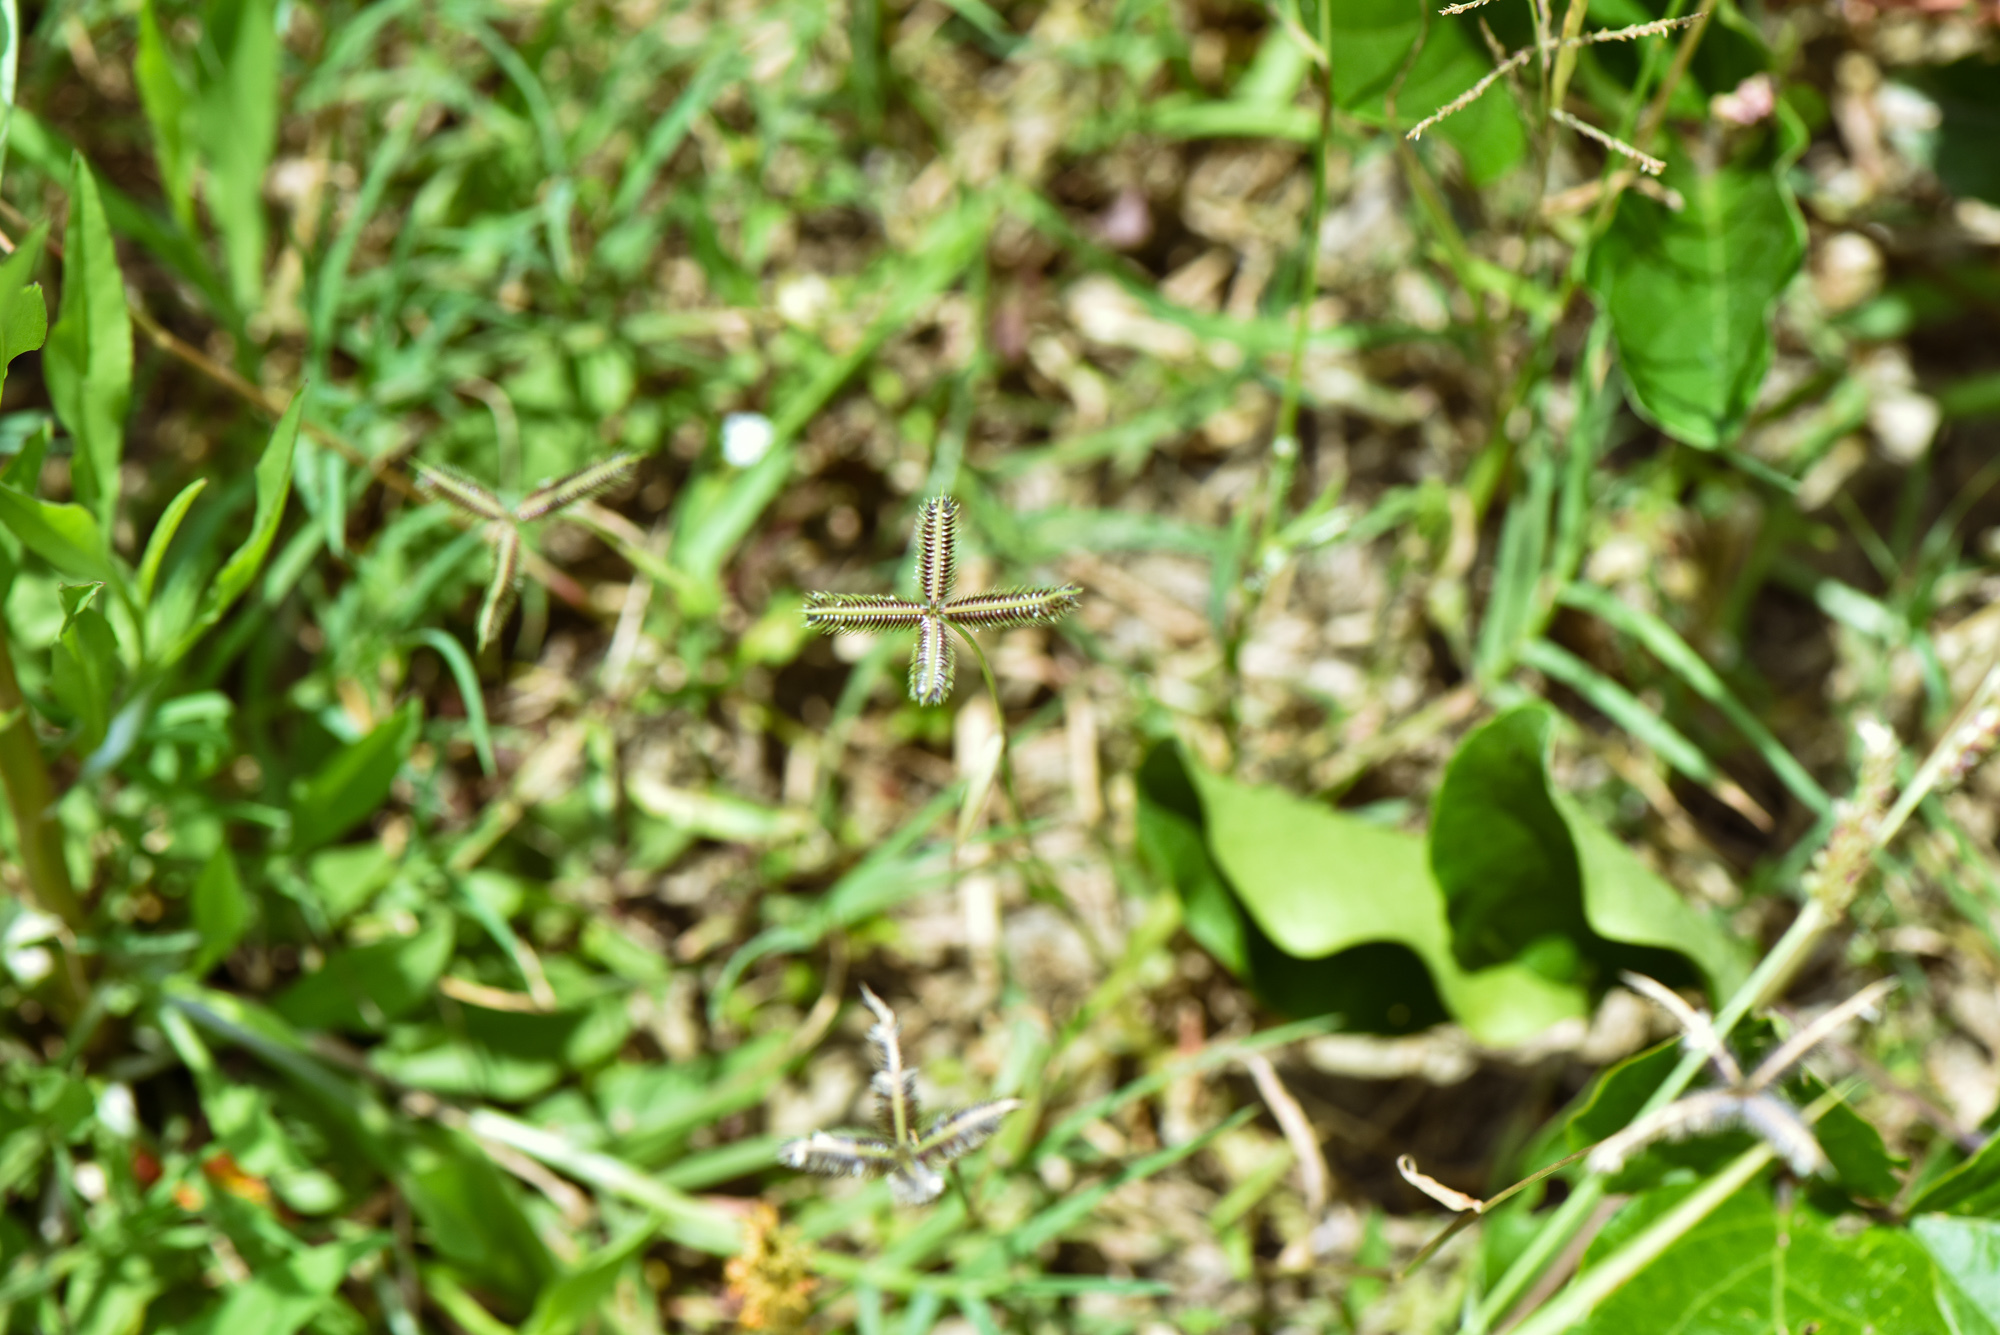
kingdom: Plantae
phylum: Tracheophyta
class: Liliopsida
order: Poales
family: Poaceae
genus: Dactyloctenium
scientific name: Dactyloctenium aegyptium
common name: Egyptian grass
